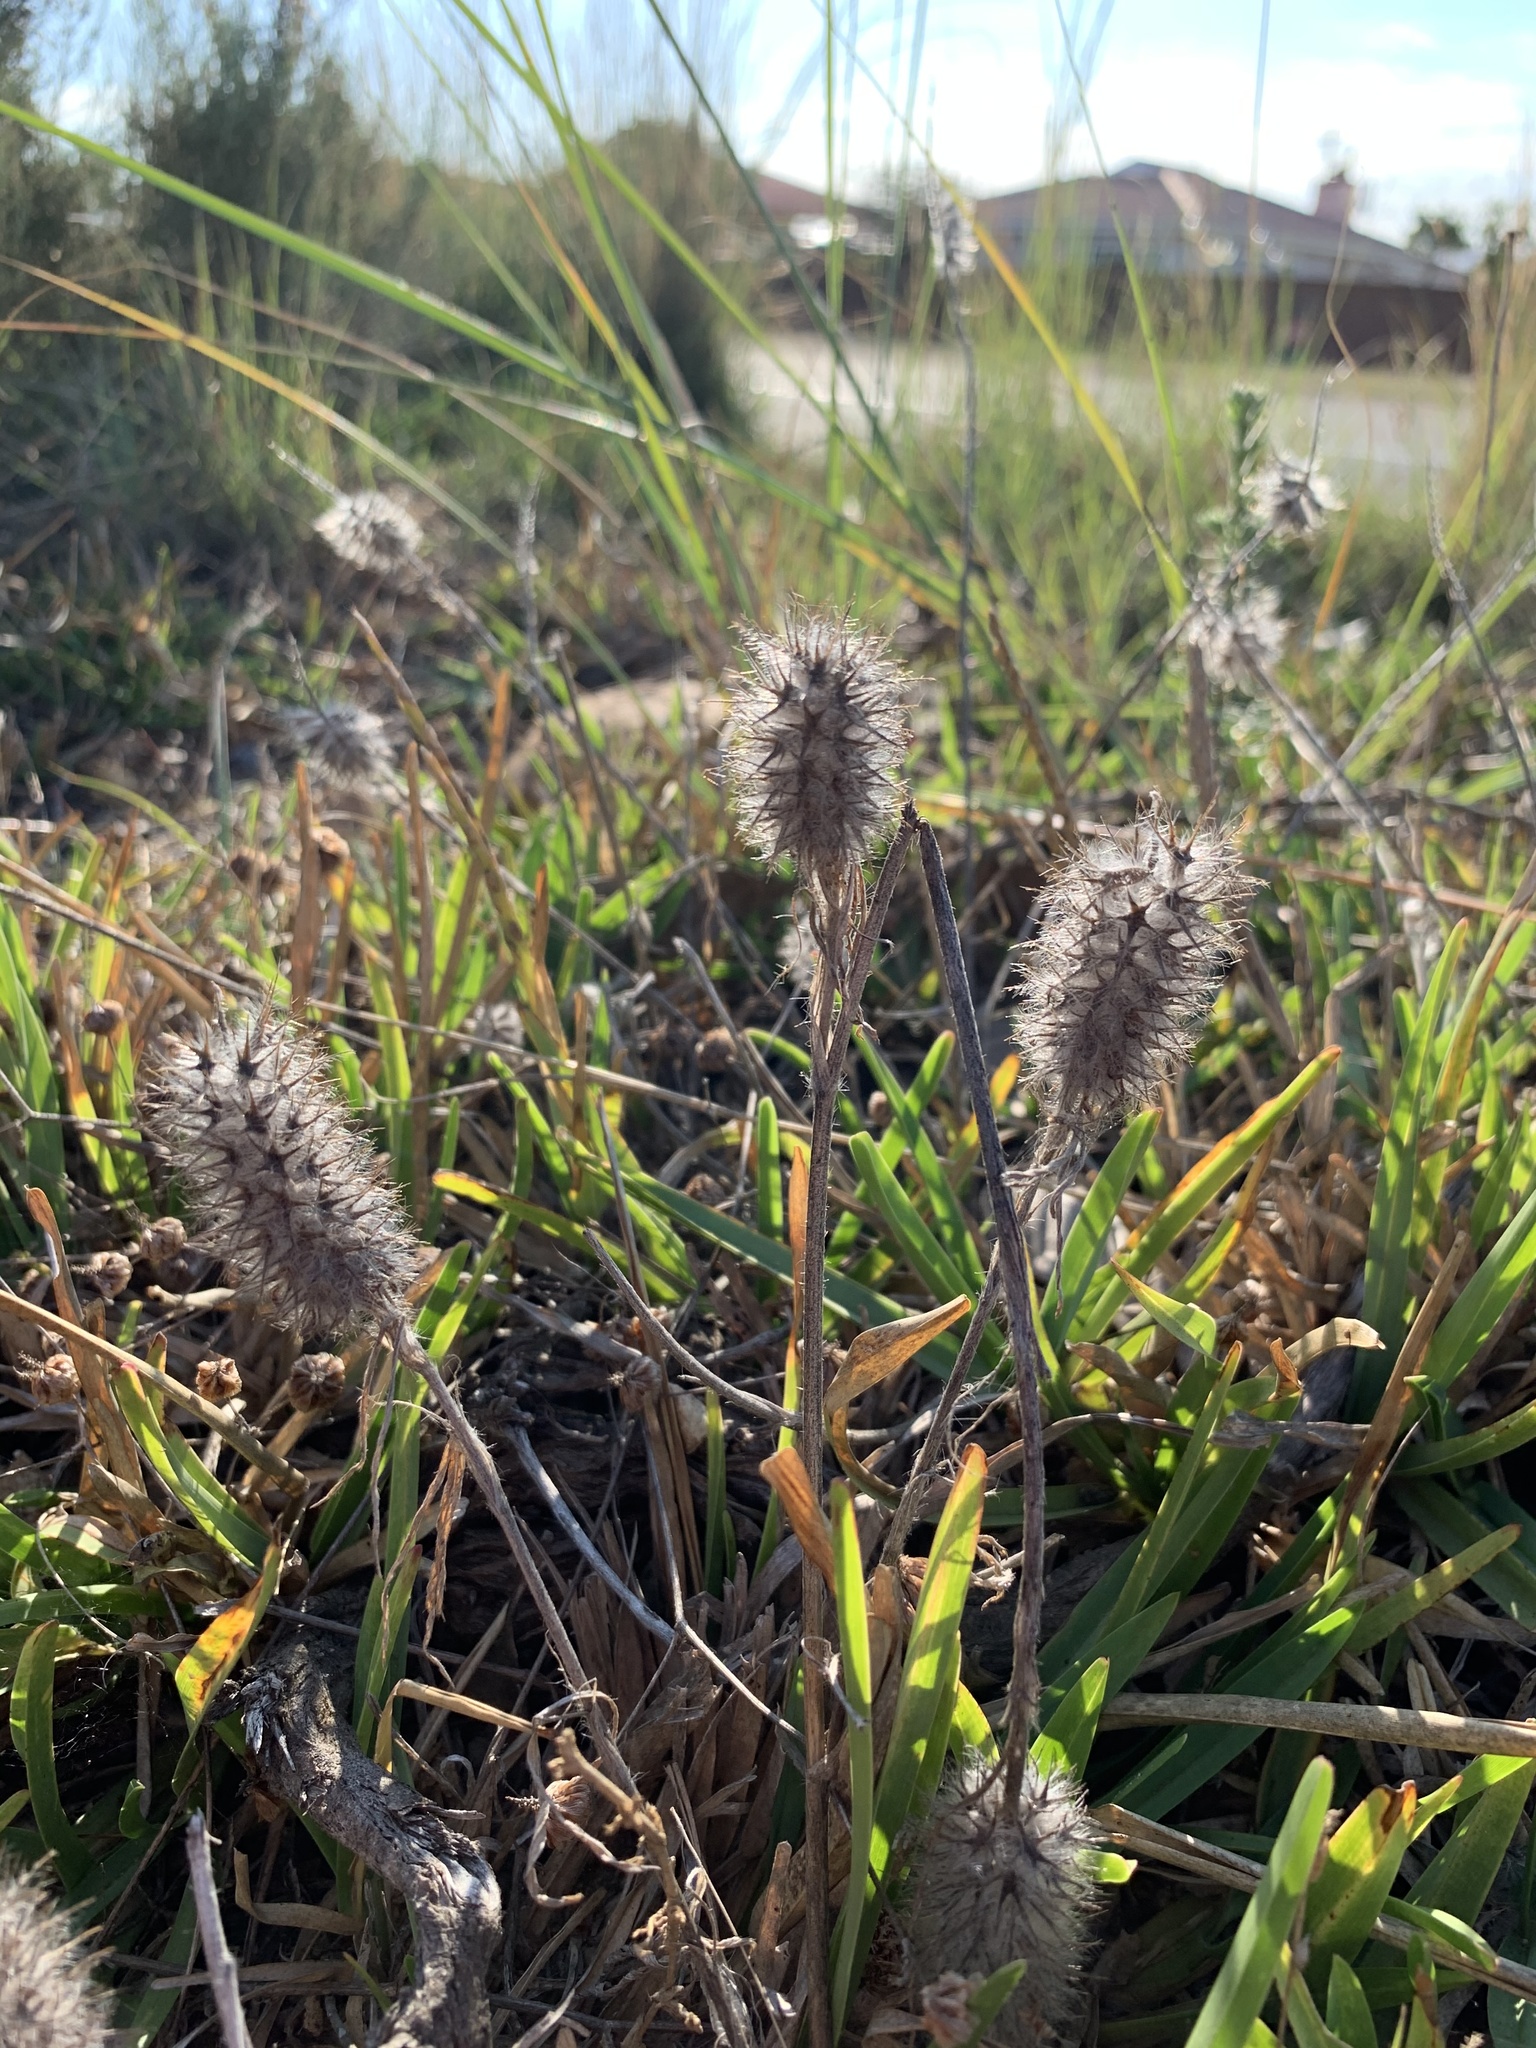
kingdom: Plantae
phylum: Tracheophyta
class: Magnoliopsida
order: Fabales
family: Fabaceae
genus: Trifolium
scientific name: Trifolium angustifolium
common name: Narrow clover
